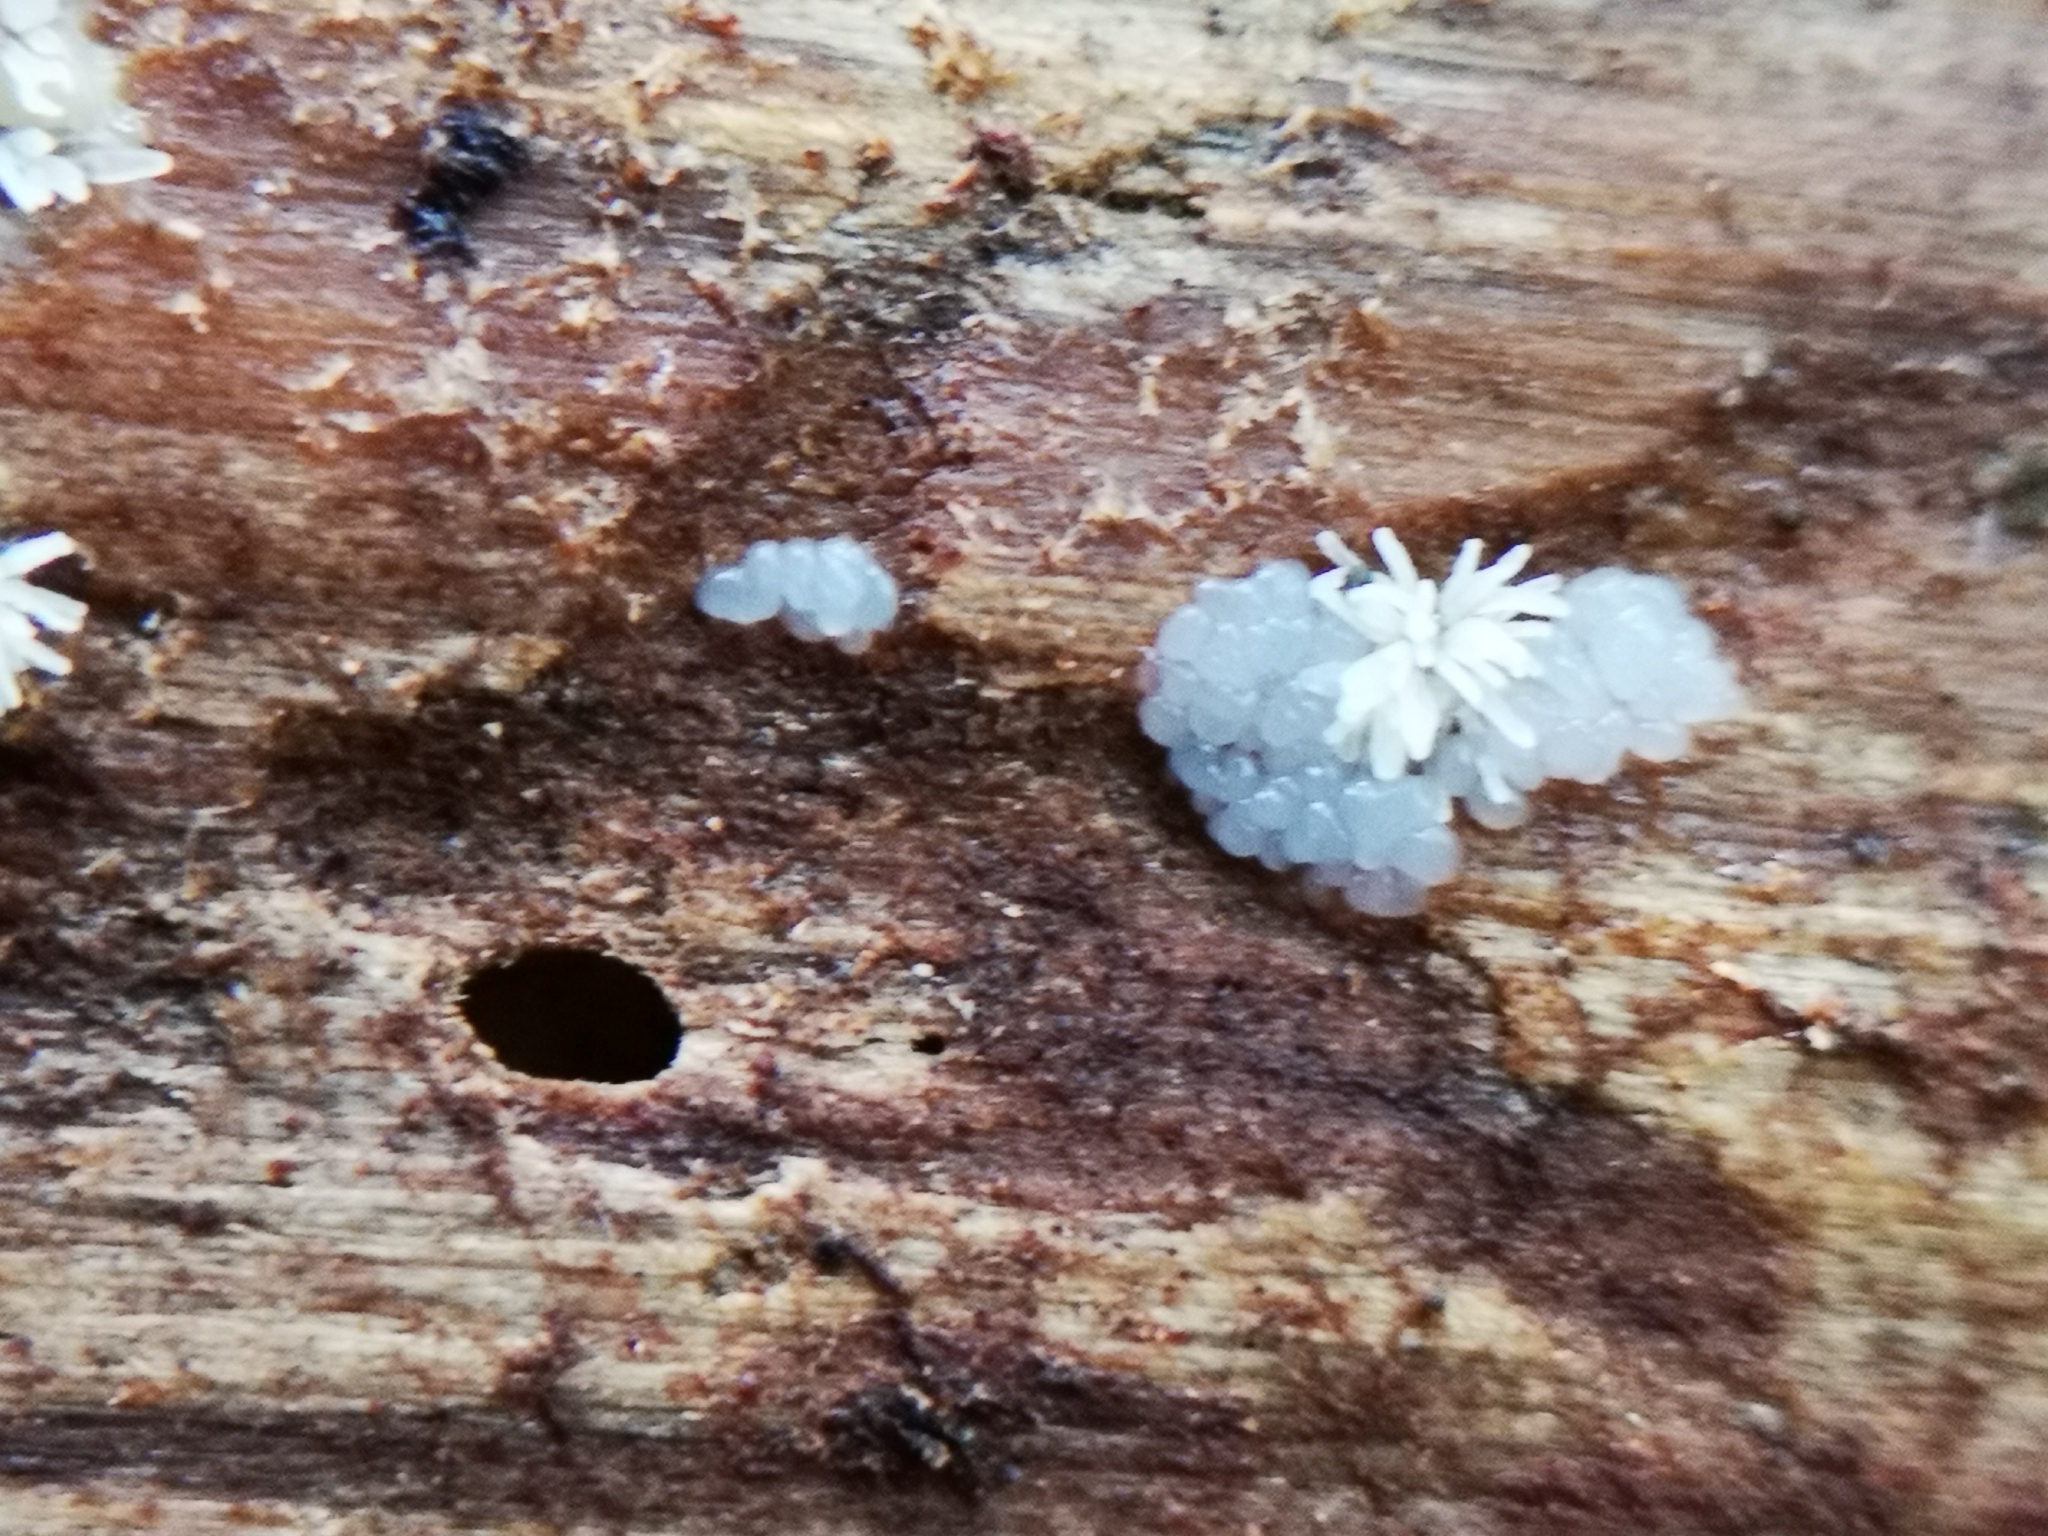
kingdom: Protozoa
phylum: Mycetozoa
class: Protosteliomycetes
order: Ceratiomyxales
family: Ceratiomyxaceae
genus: Ceratiomyxa
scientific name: Ceratiomyxa fruticulosa
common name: Honeycomb coral slime mold
